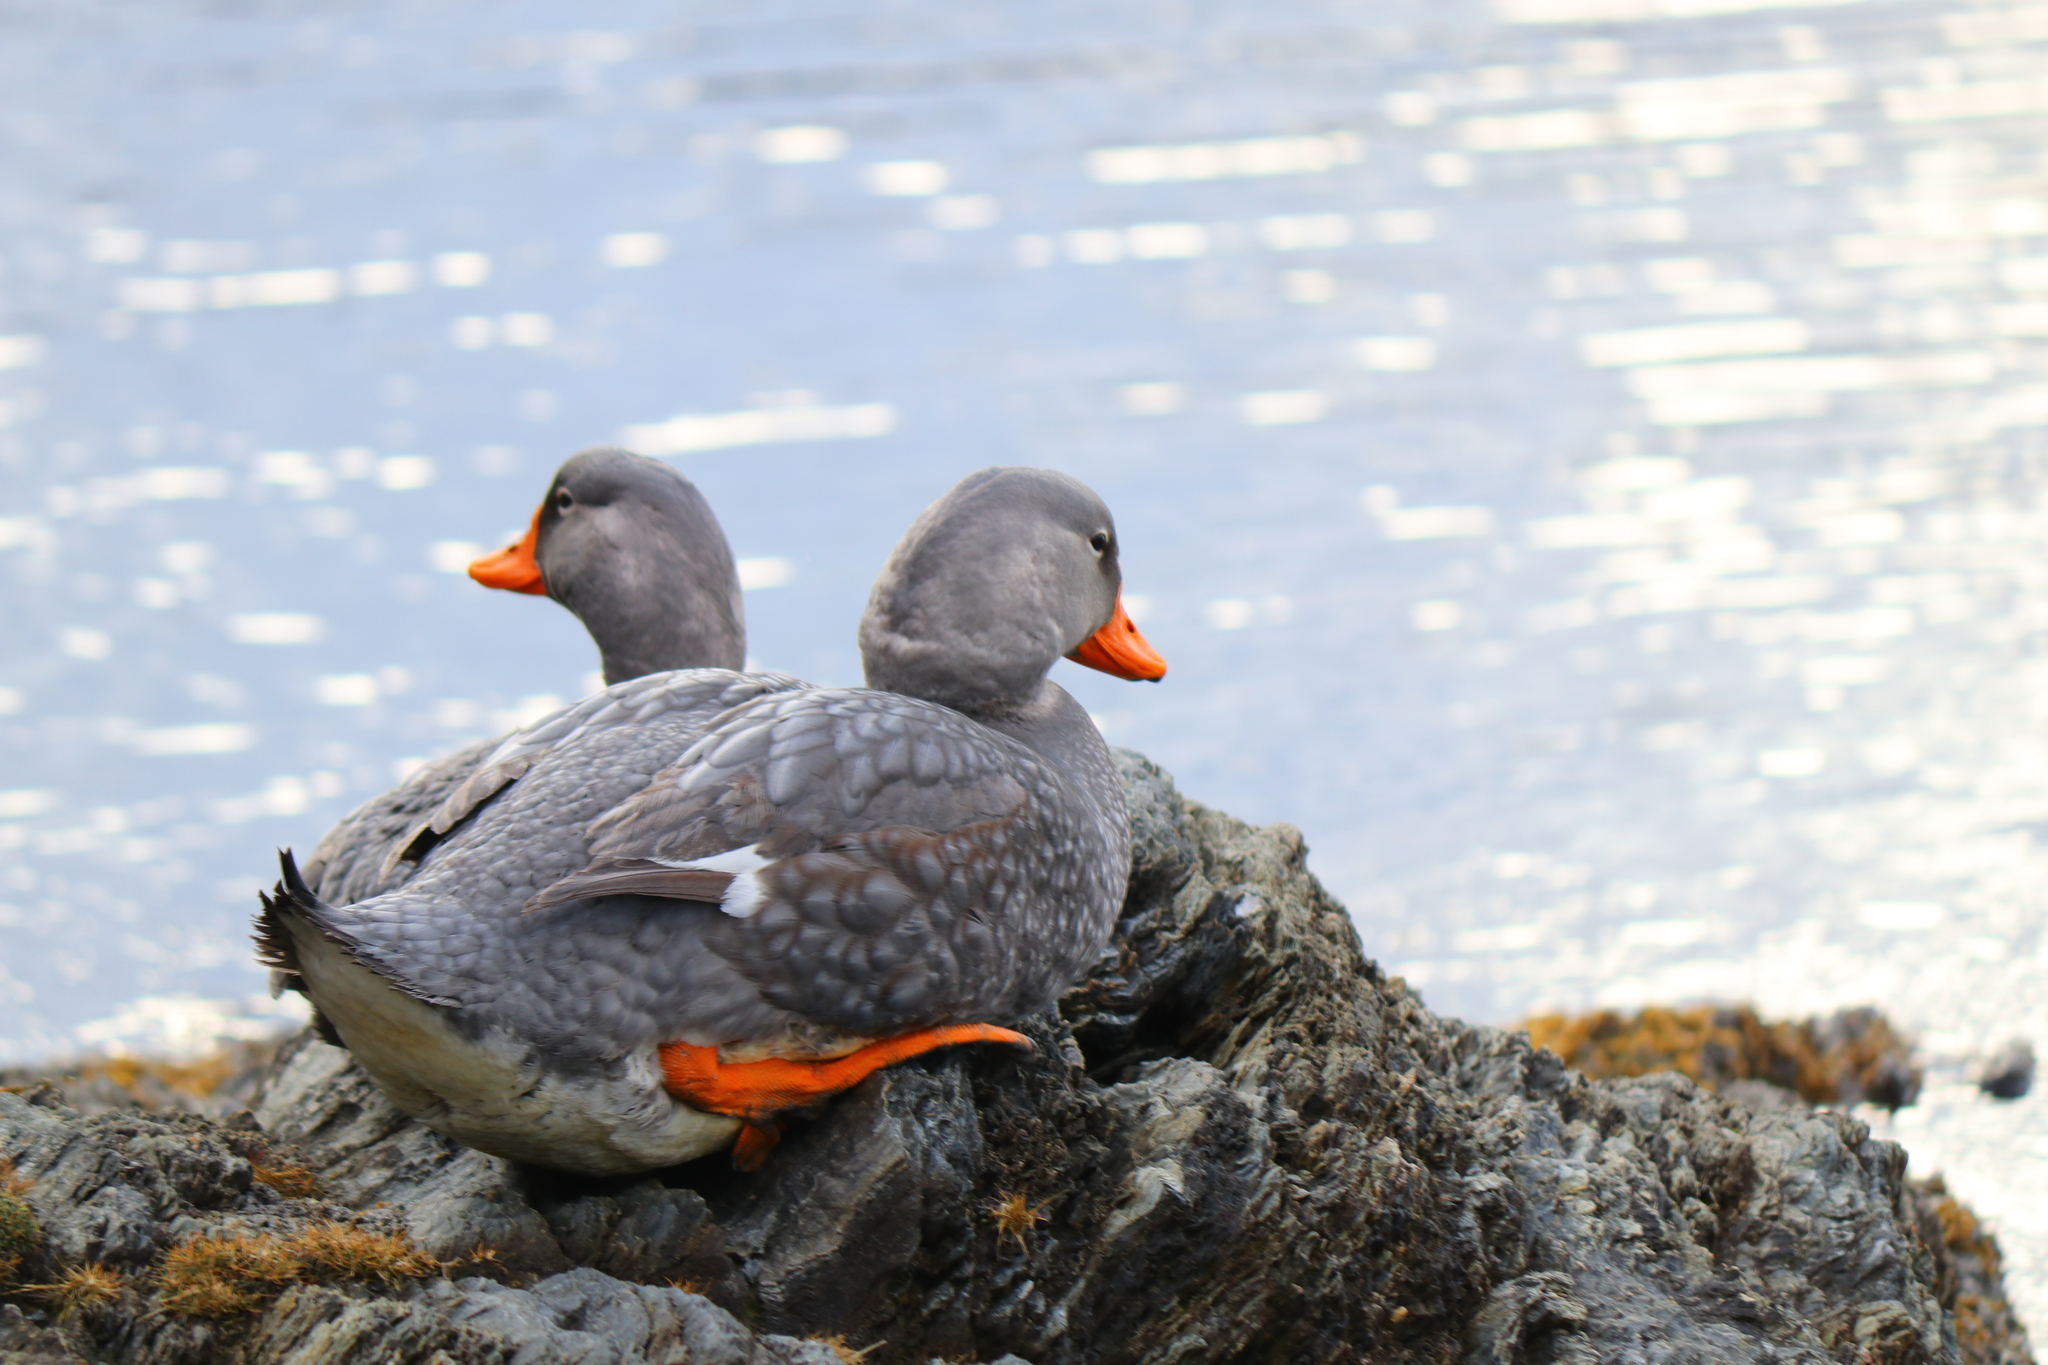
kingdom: Animalia
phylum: Chordata
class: Aves
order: Anseriformes
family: Anatidae
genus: Tachyeres
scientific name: Tachyeres pteneres
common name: Fuegian steamer duck
